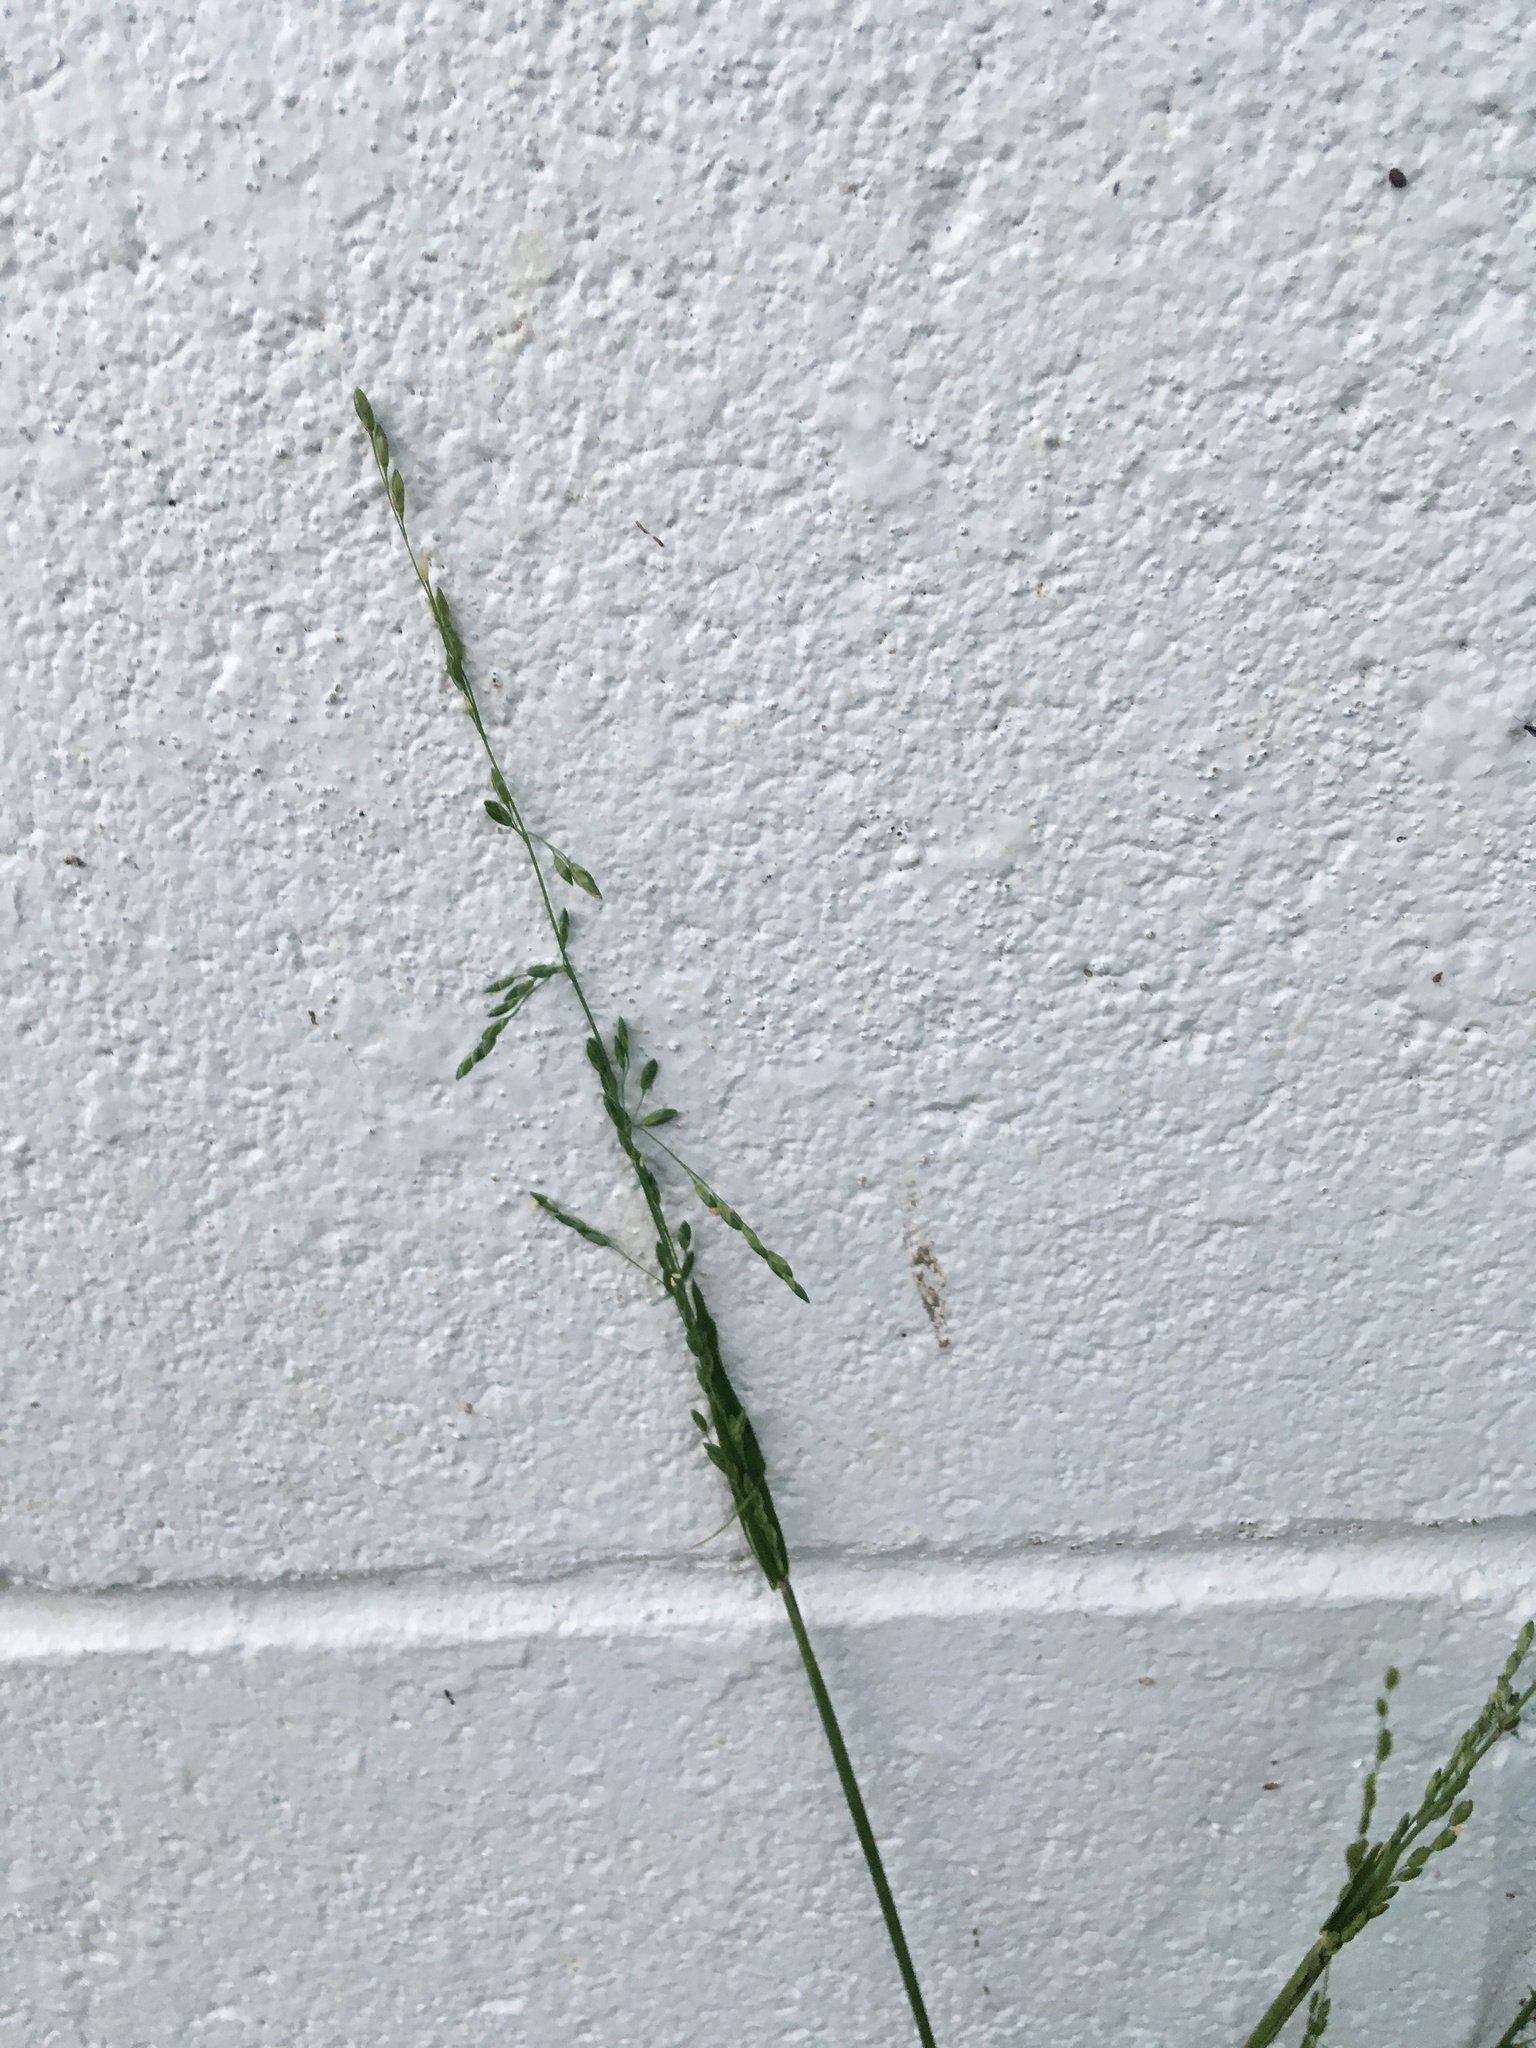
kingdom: Plantae
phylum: Tracheophyta
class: Liliopsida
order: Poales
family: Poaceae
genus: Ehrharta
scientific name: Ehrharta erecta
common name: Panic veldtgrass
